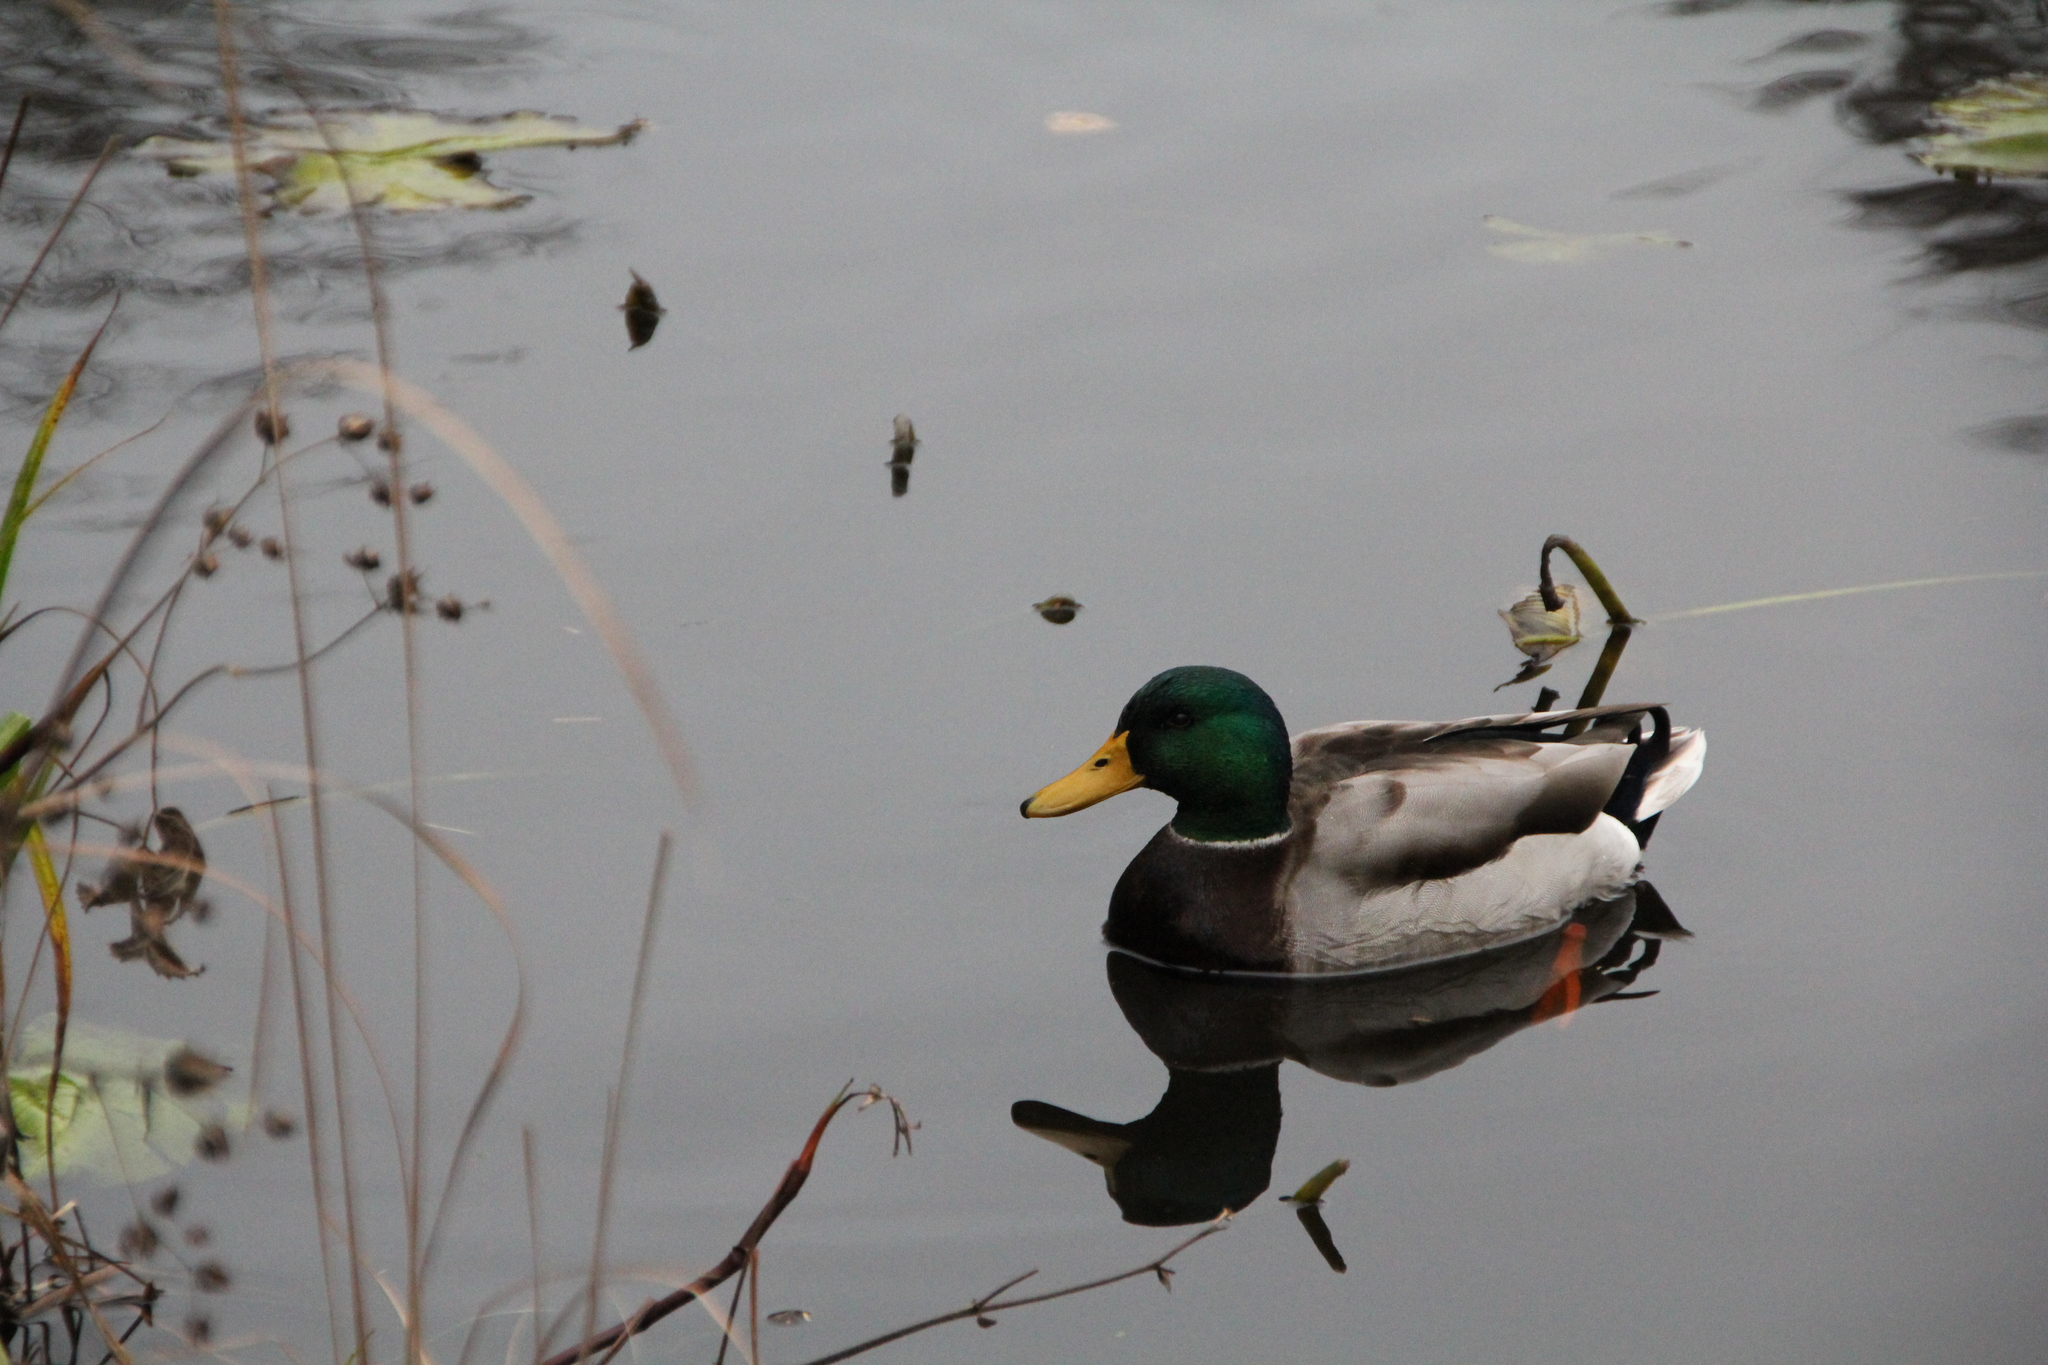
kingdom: Animalia
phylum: Chordata
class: Aves
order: Anseriformes
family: Anatidae
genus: Anas
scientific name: Anas platyrhynchos
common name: Mallard
